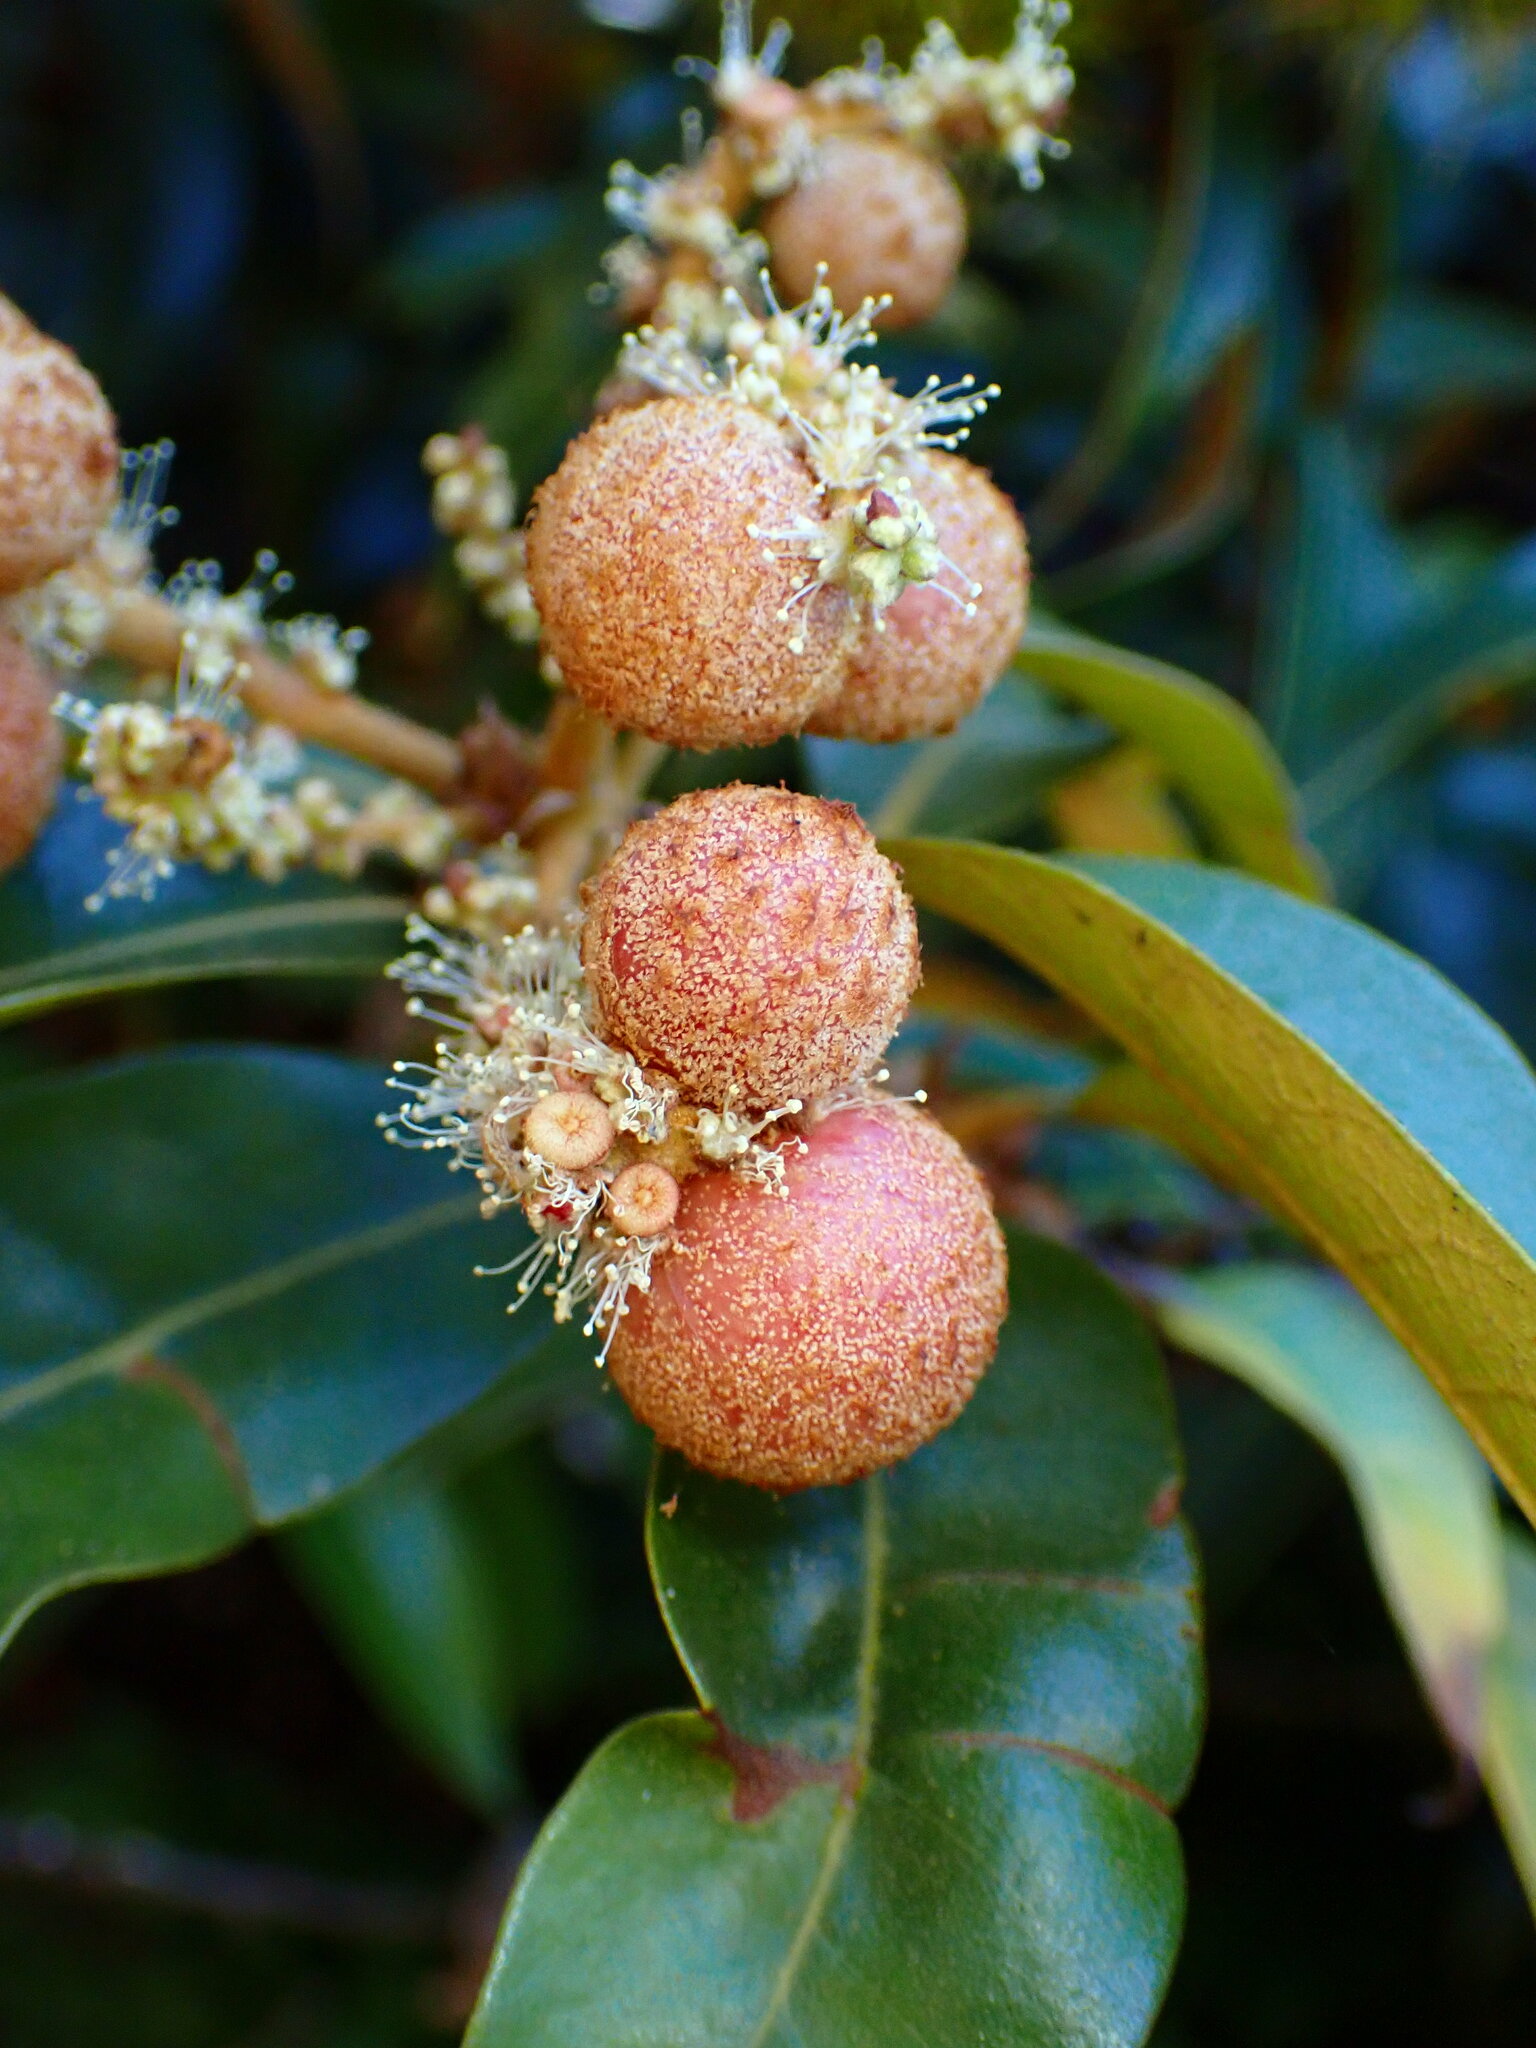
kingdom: Animalia
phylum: Arthropoda
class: Insecta
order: Hymenoptera
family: Cynipidae
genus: Synergus
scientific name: Synergus castanopsidis
